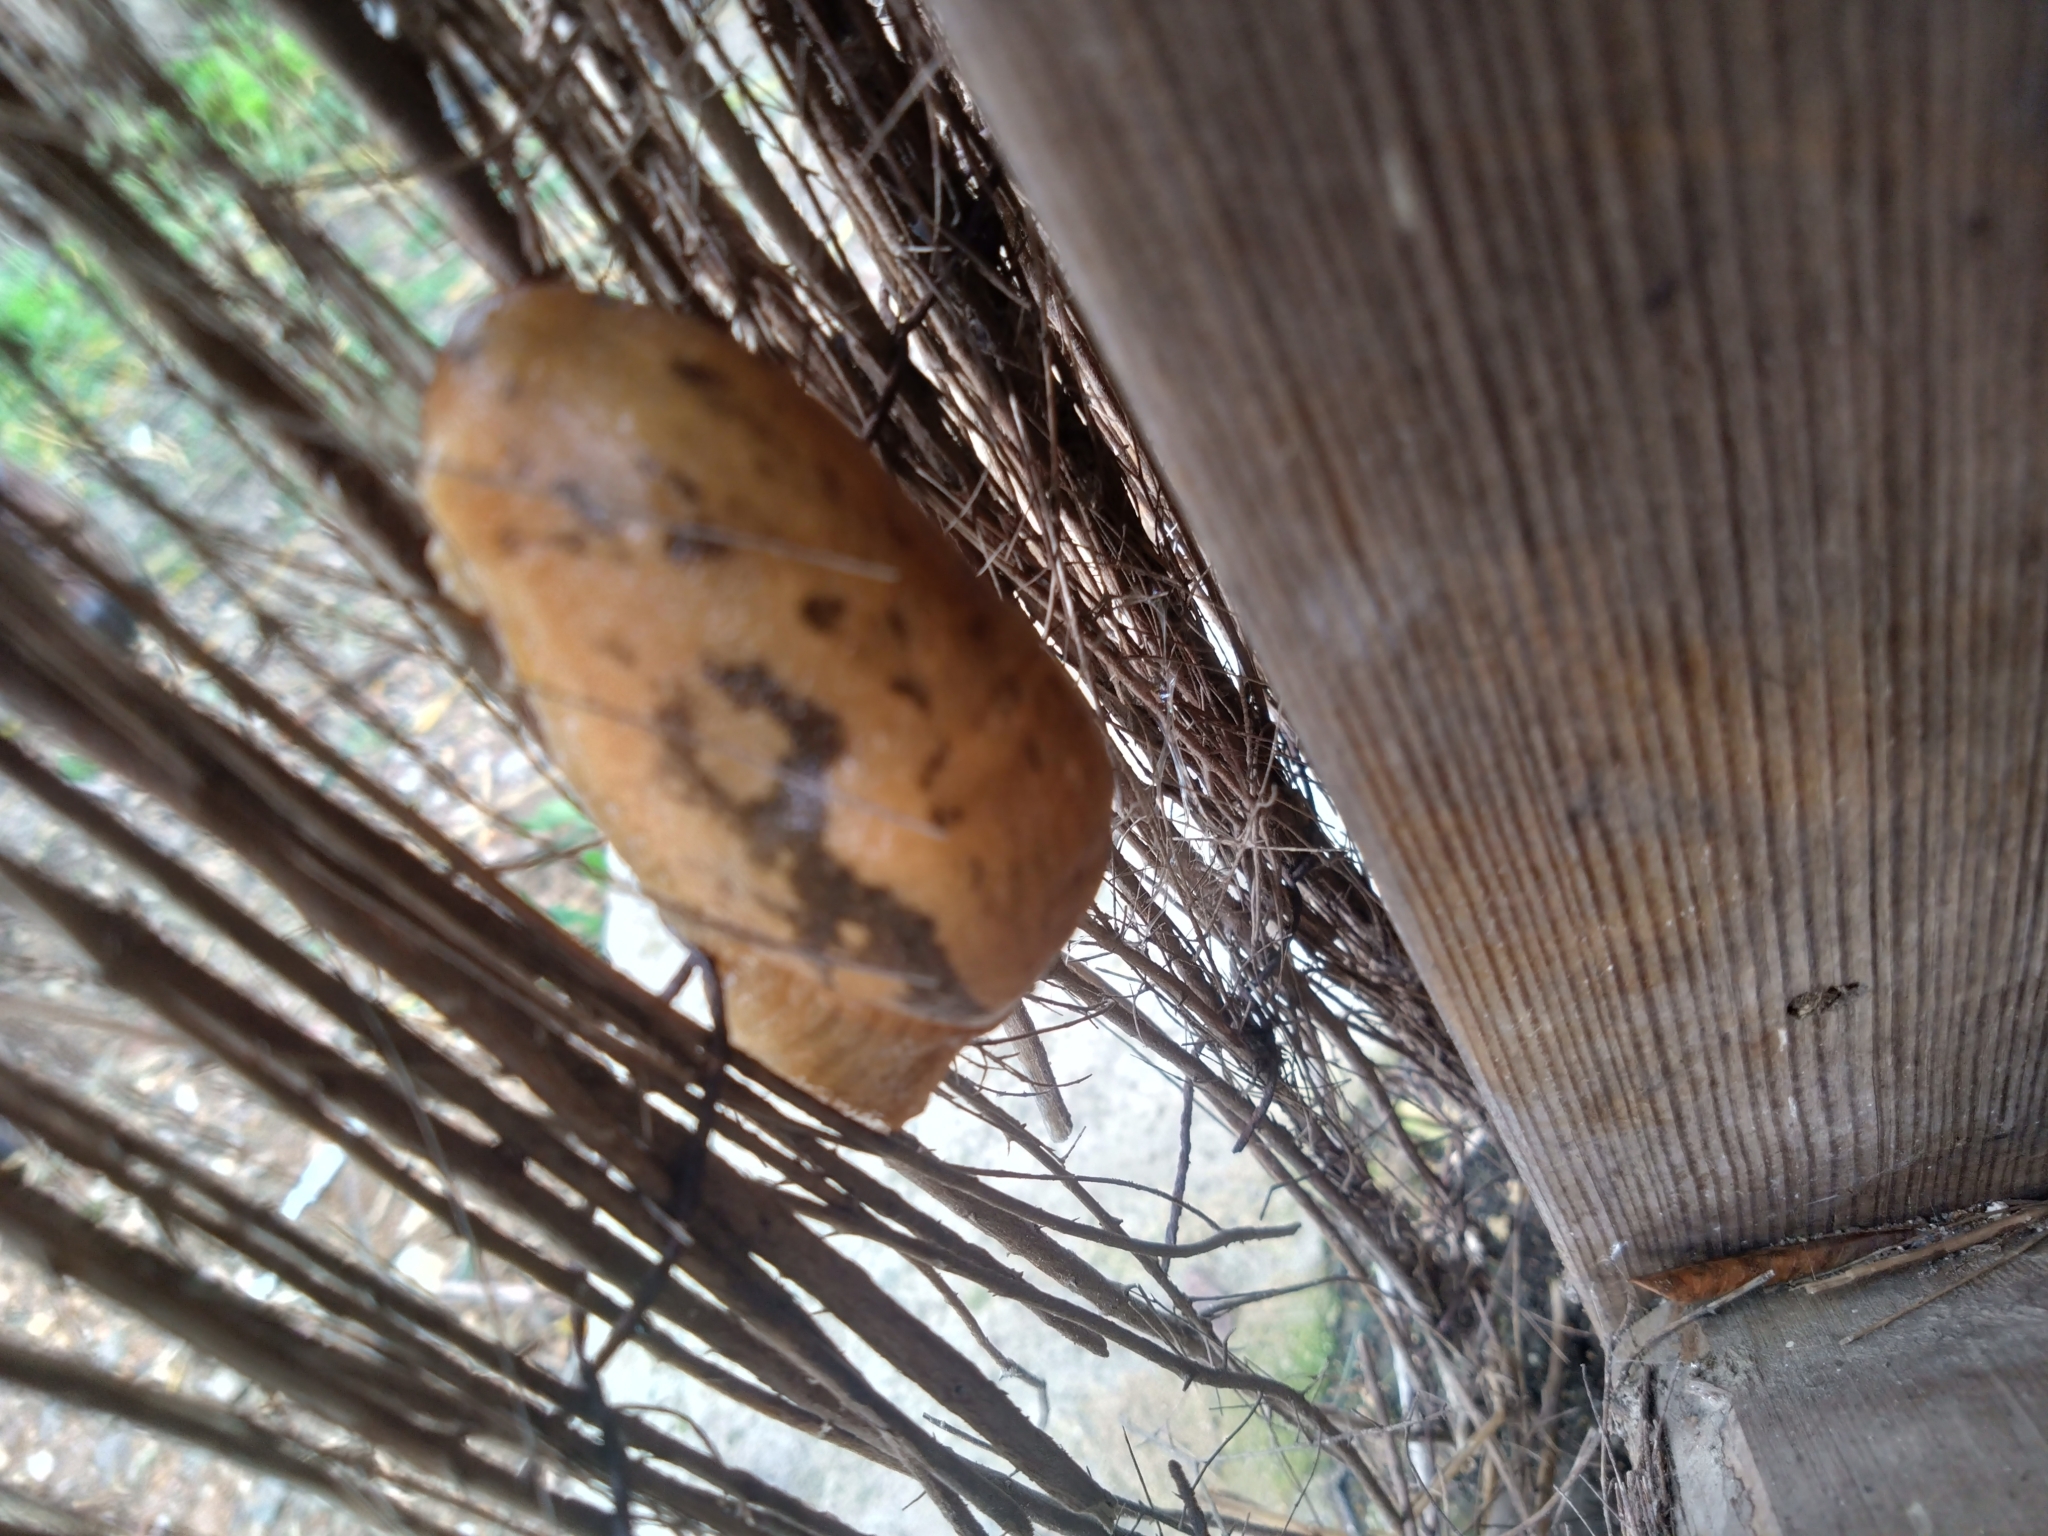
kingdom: Animalia
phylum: Mollusca
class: Gastropoda
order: Stylommatophora
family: Parmacellidae
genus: Drusia
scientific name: Drusia valenciennii
